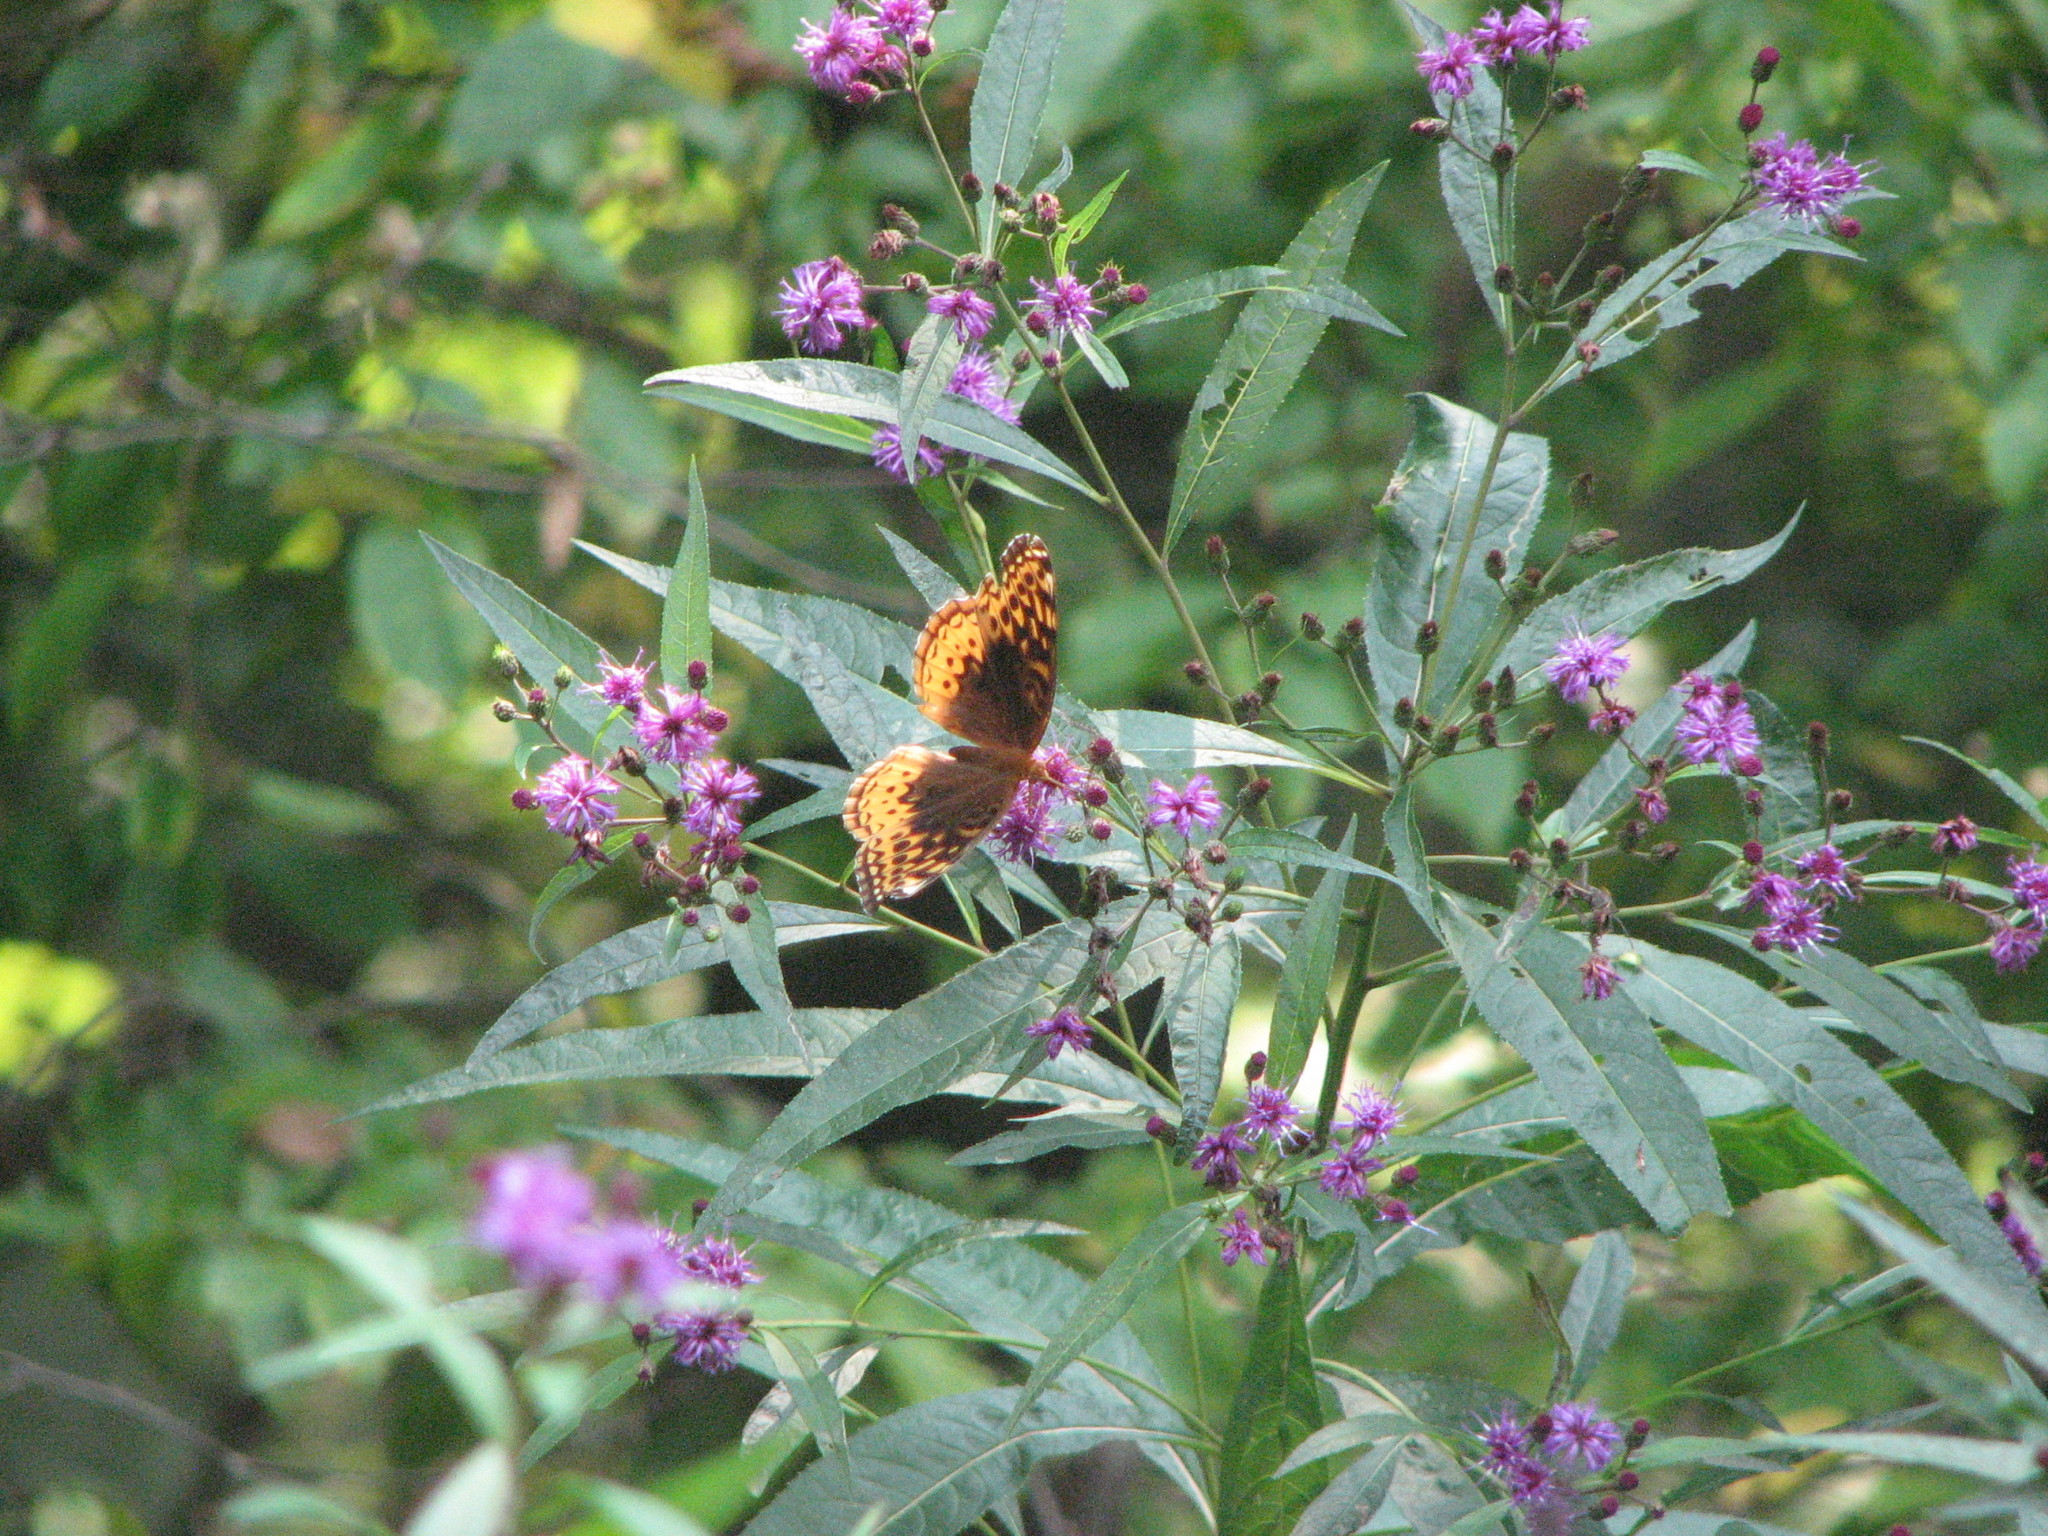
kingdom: Animalia
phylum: Arthropoda
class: Insecta
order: Lepidoptera
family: Nymphalidae
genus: Speyeria
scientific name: Speyeria cybele
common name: Great spangled fritillary
